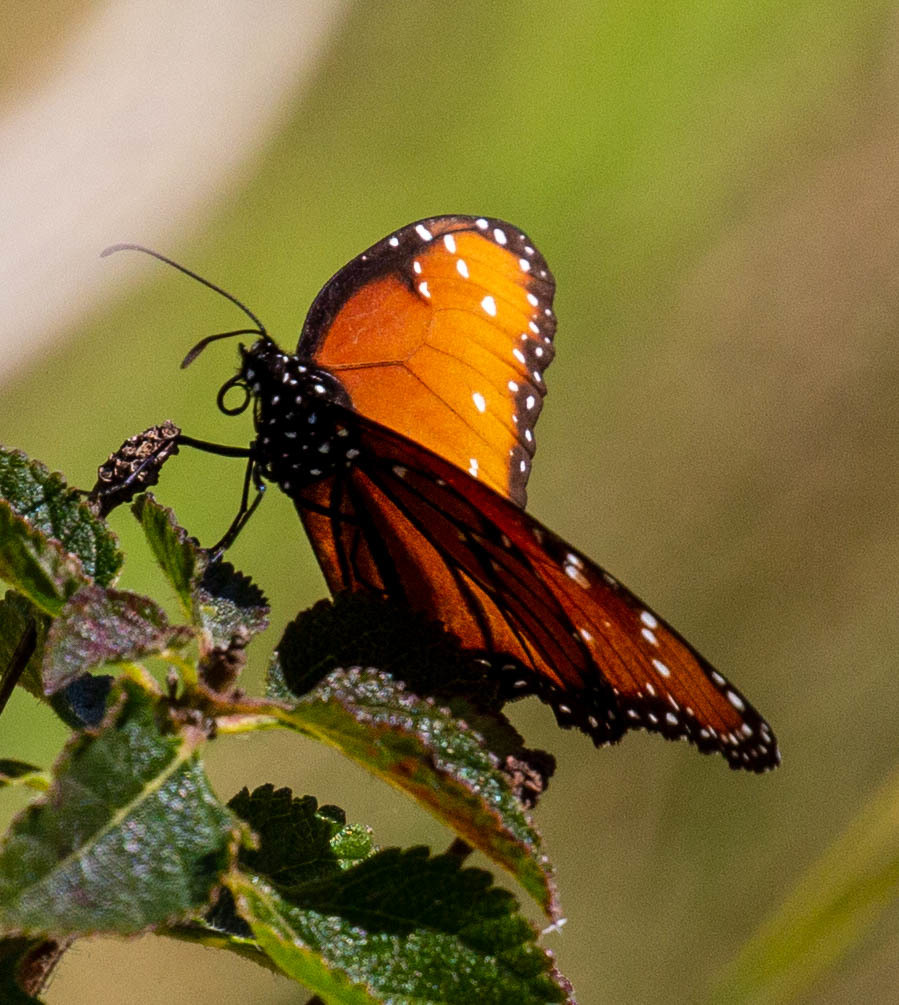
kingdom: Animalia
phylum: Arthropoda
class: Insecta
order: Lepidoptera
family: Nymphalidae
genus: Danaus
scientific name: Danaus gilippus
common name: Queen
